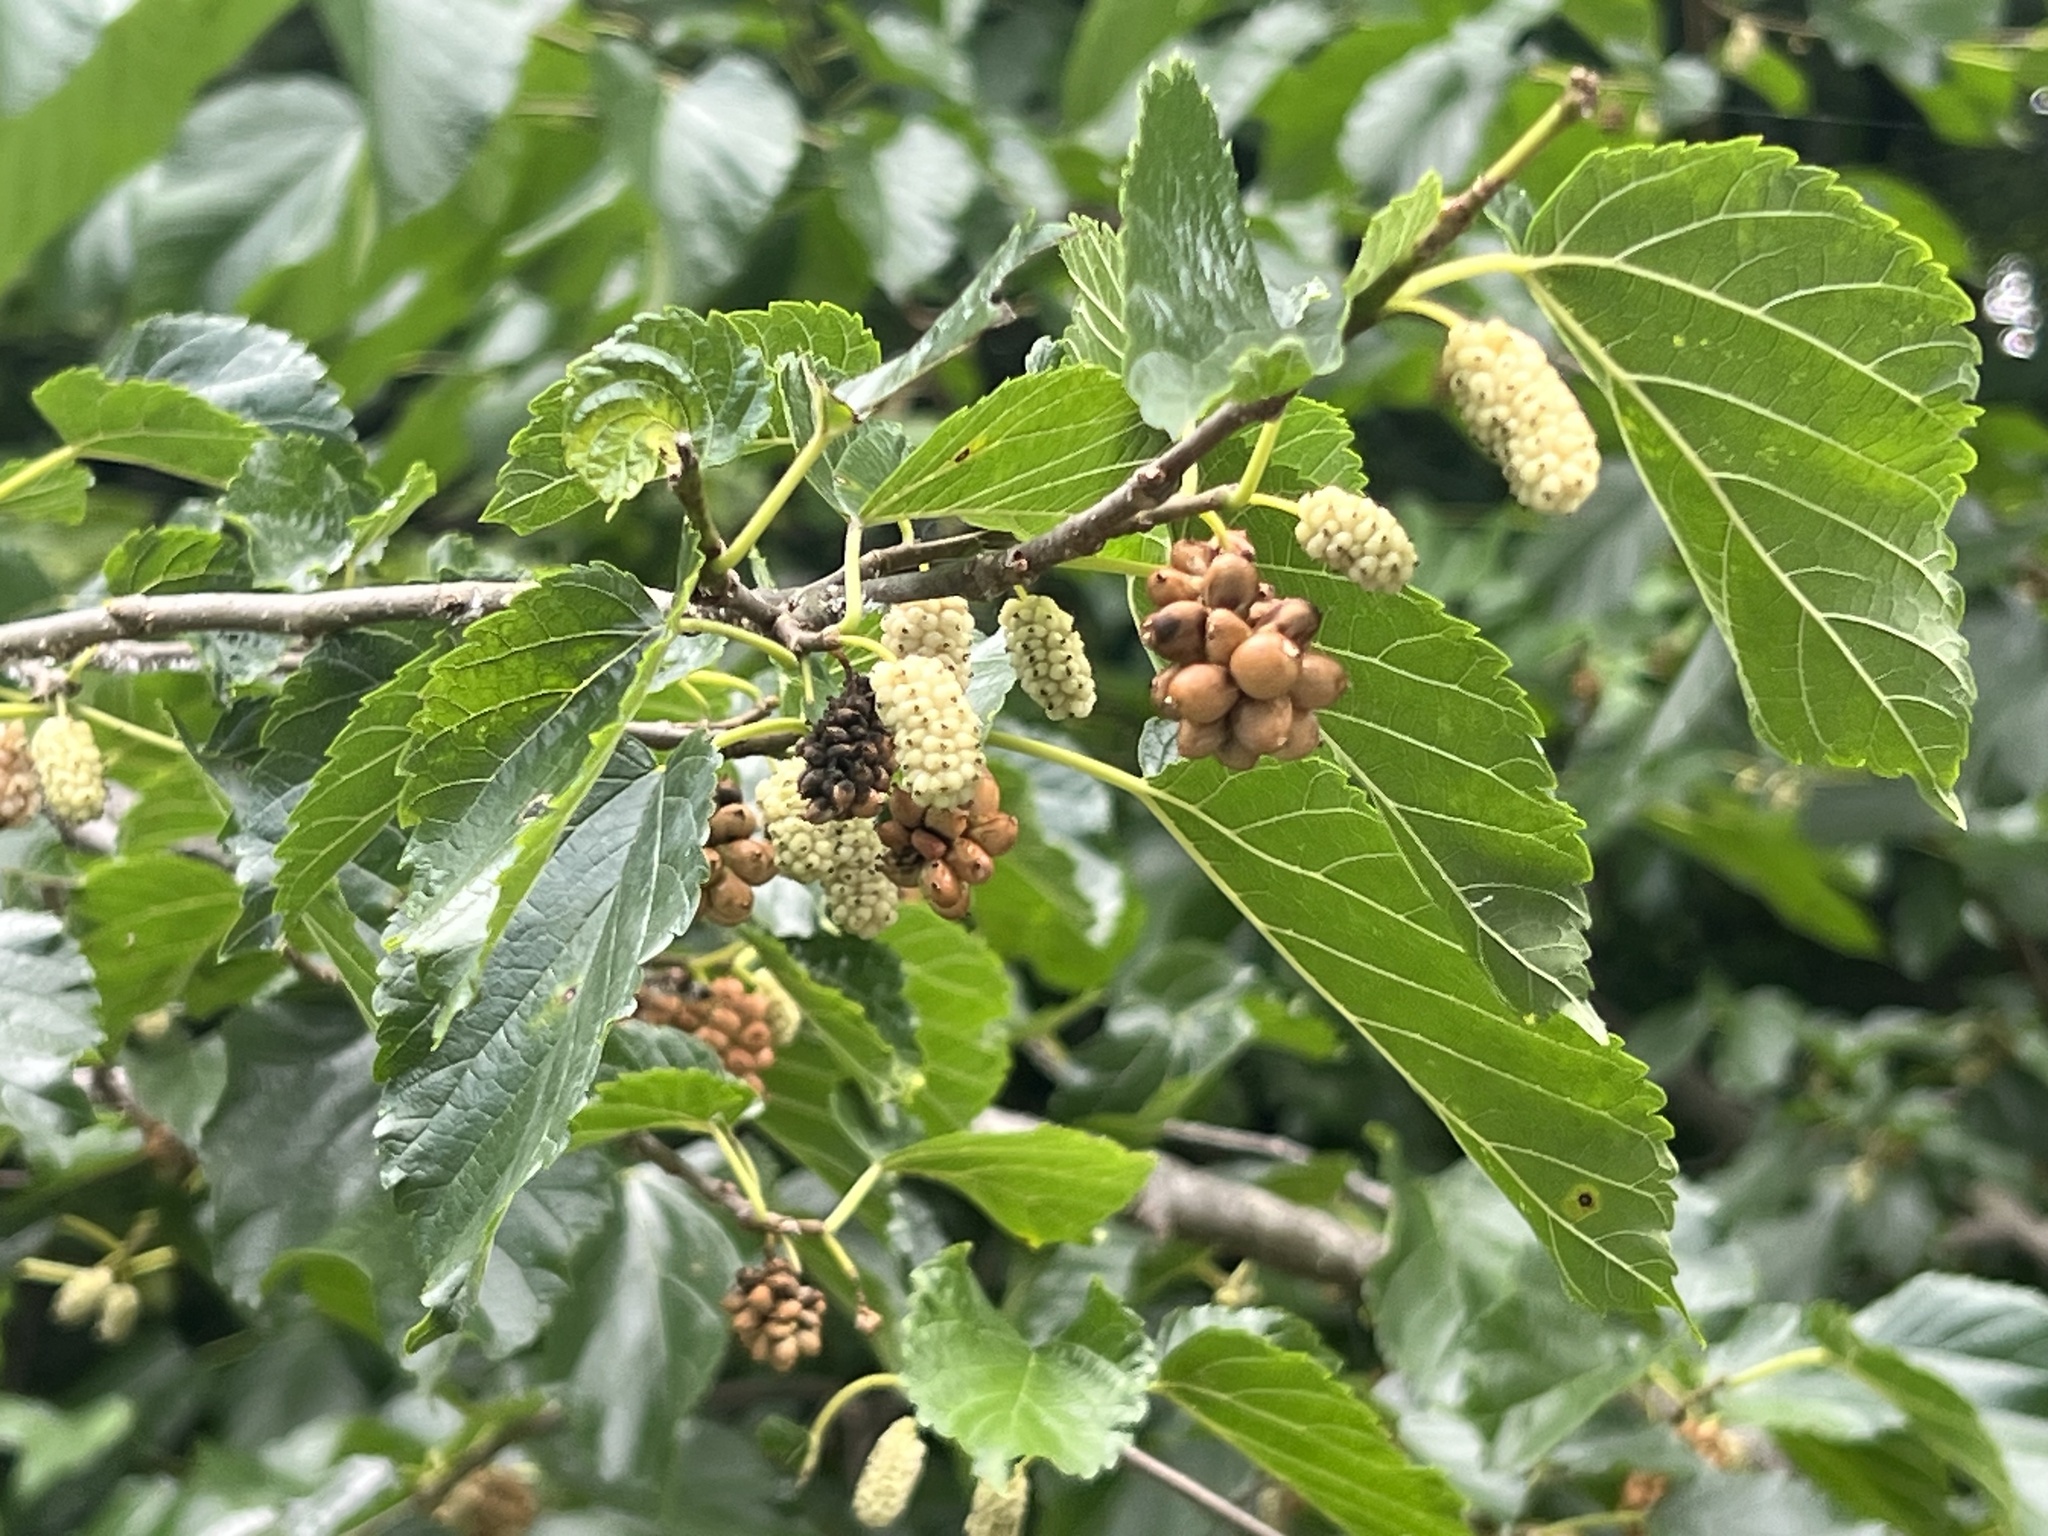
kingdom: Plantae
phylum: Tracheophyta
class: Magnoliopsida
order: Rosales
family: Moraceae
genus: Morus
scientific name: Morus alba
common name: White mulberry
